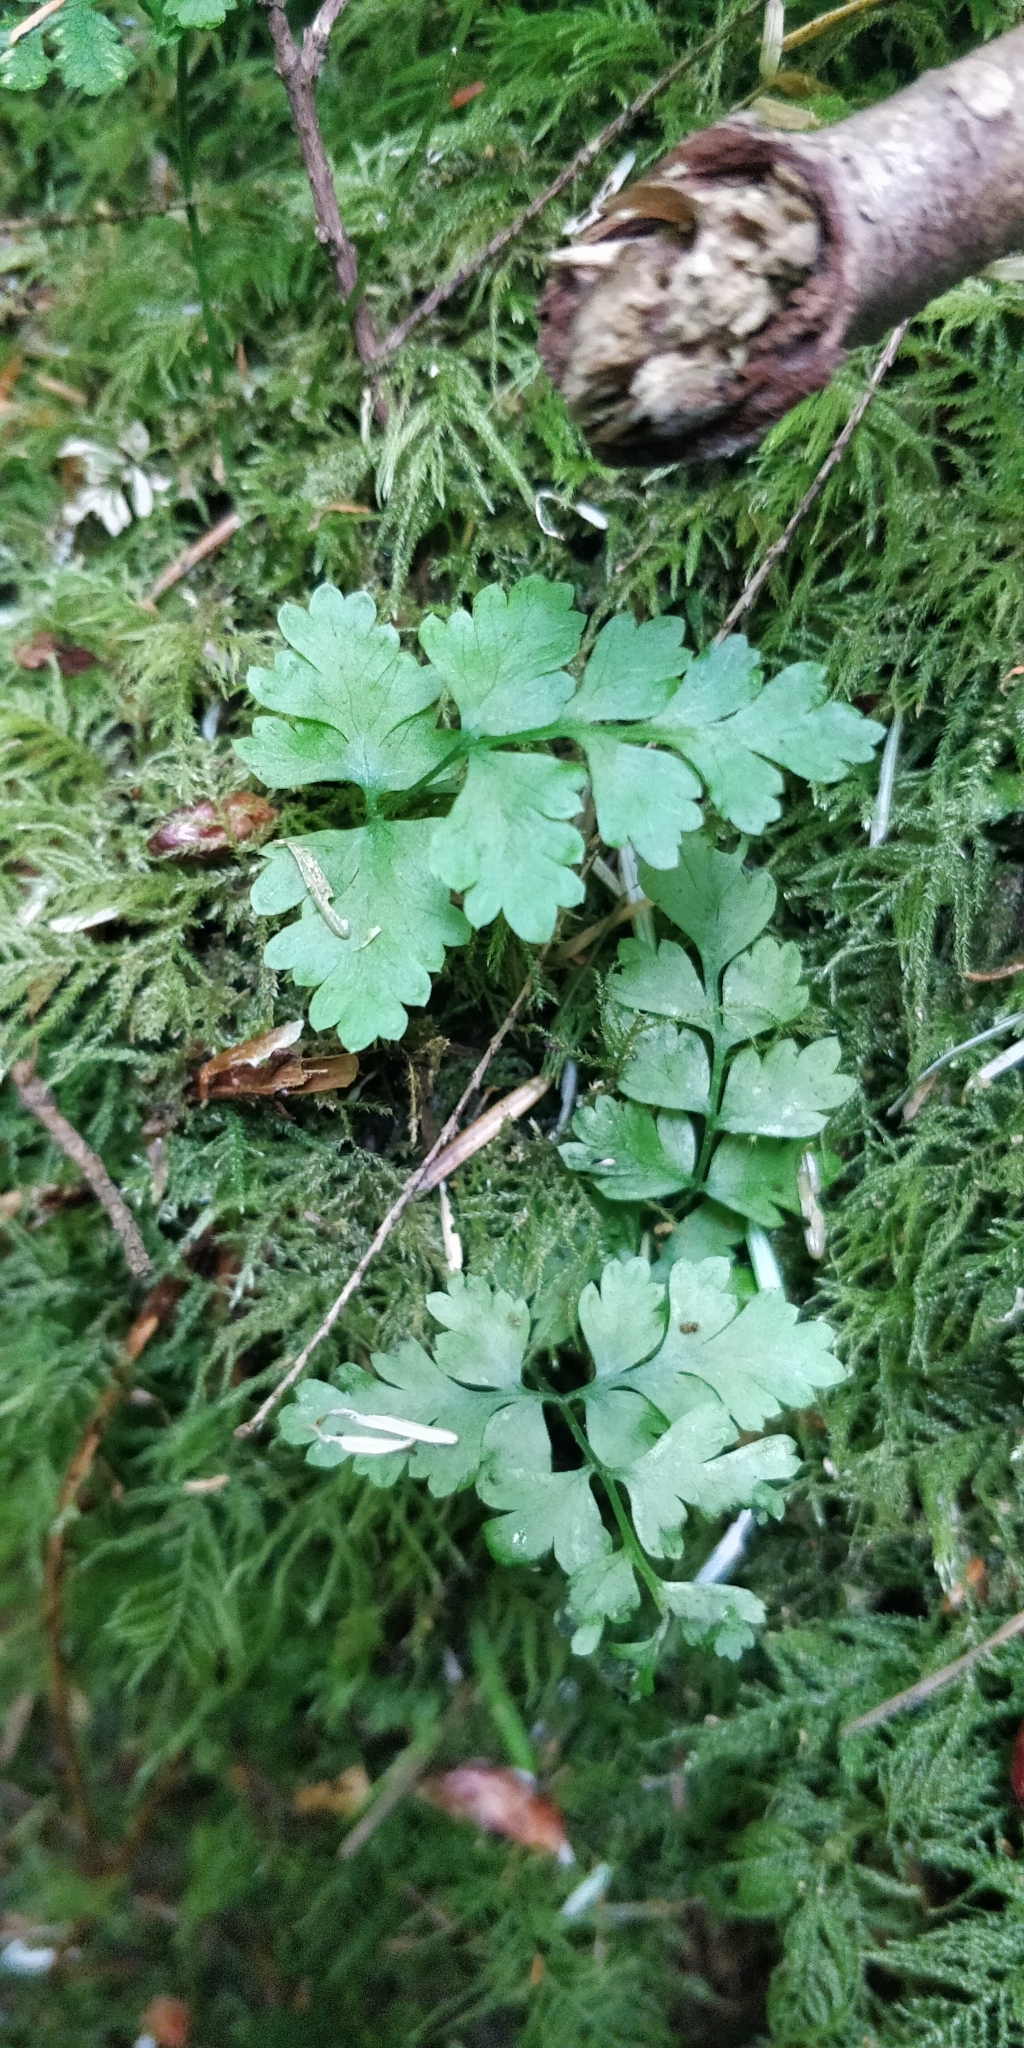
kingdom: Plantae
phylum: Tracheophyta
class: Polypodiopsida
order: Polypodiales
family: Dryopteridaceae
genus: Dryopteris
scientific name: Dryopteris expansa
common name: Northern buckler fern
